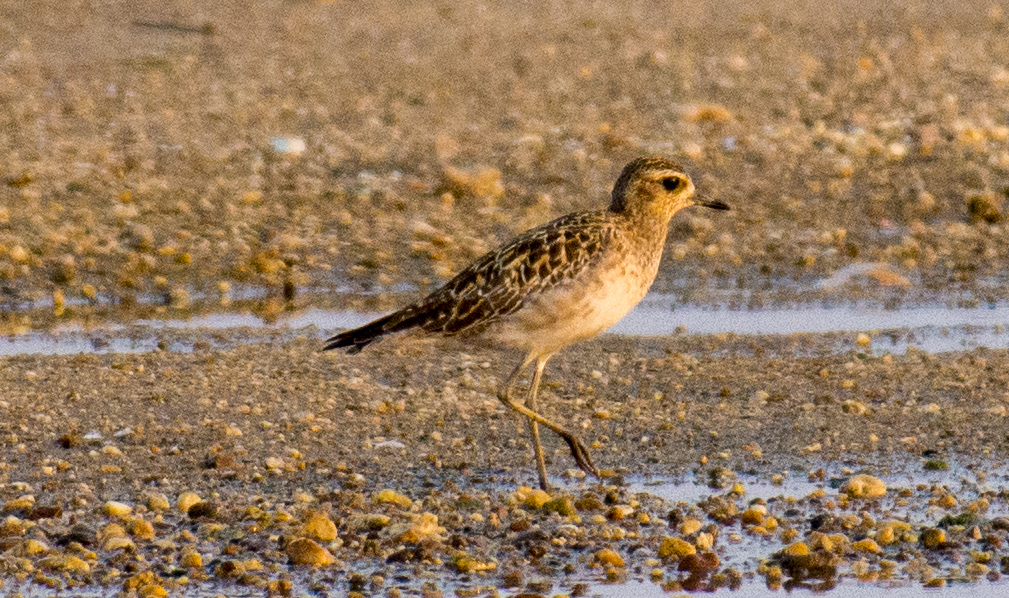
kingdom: Animalia
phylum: Chordata
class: Aves
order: Charadriiformes
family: Charadriidae
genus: Pluvialis
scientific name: Pluvialis fulva
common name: Pacific golden plover
